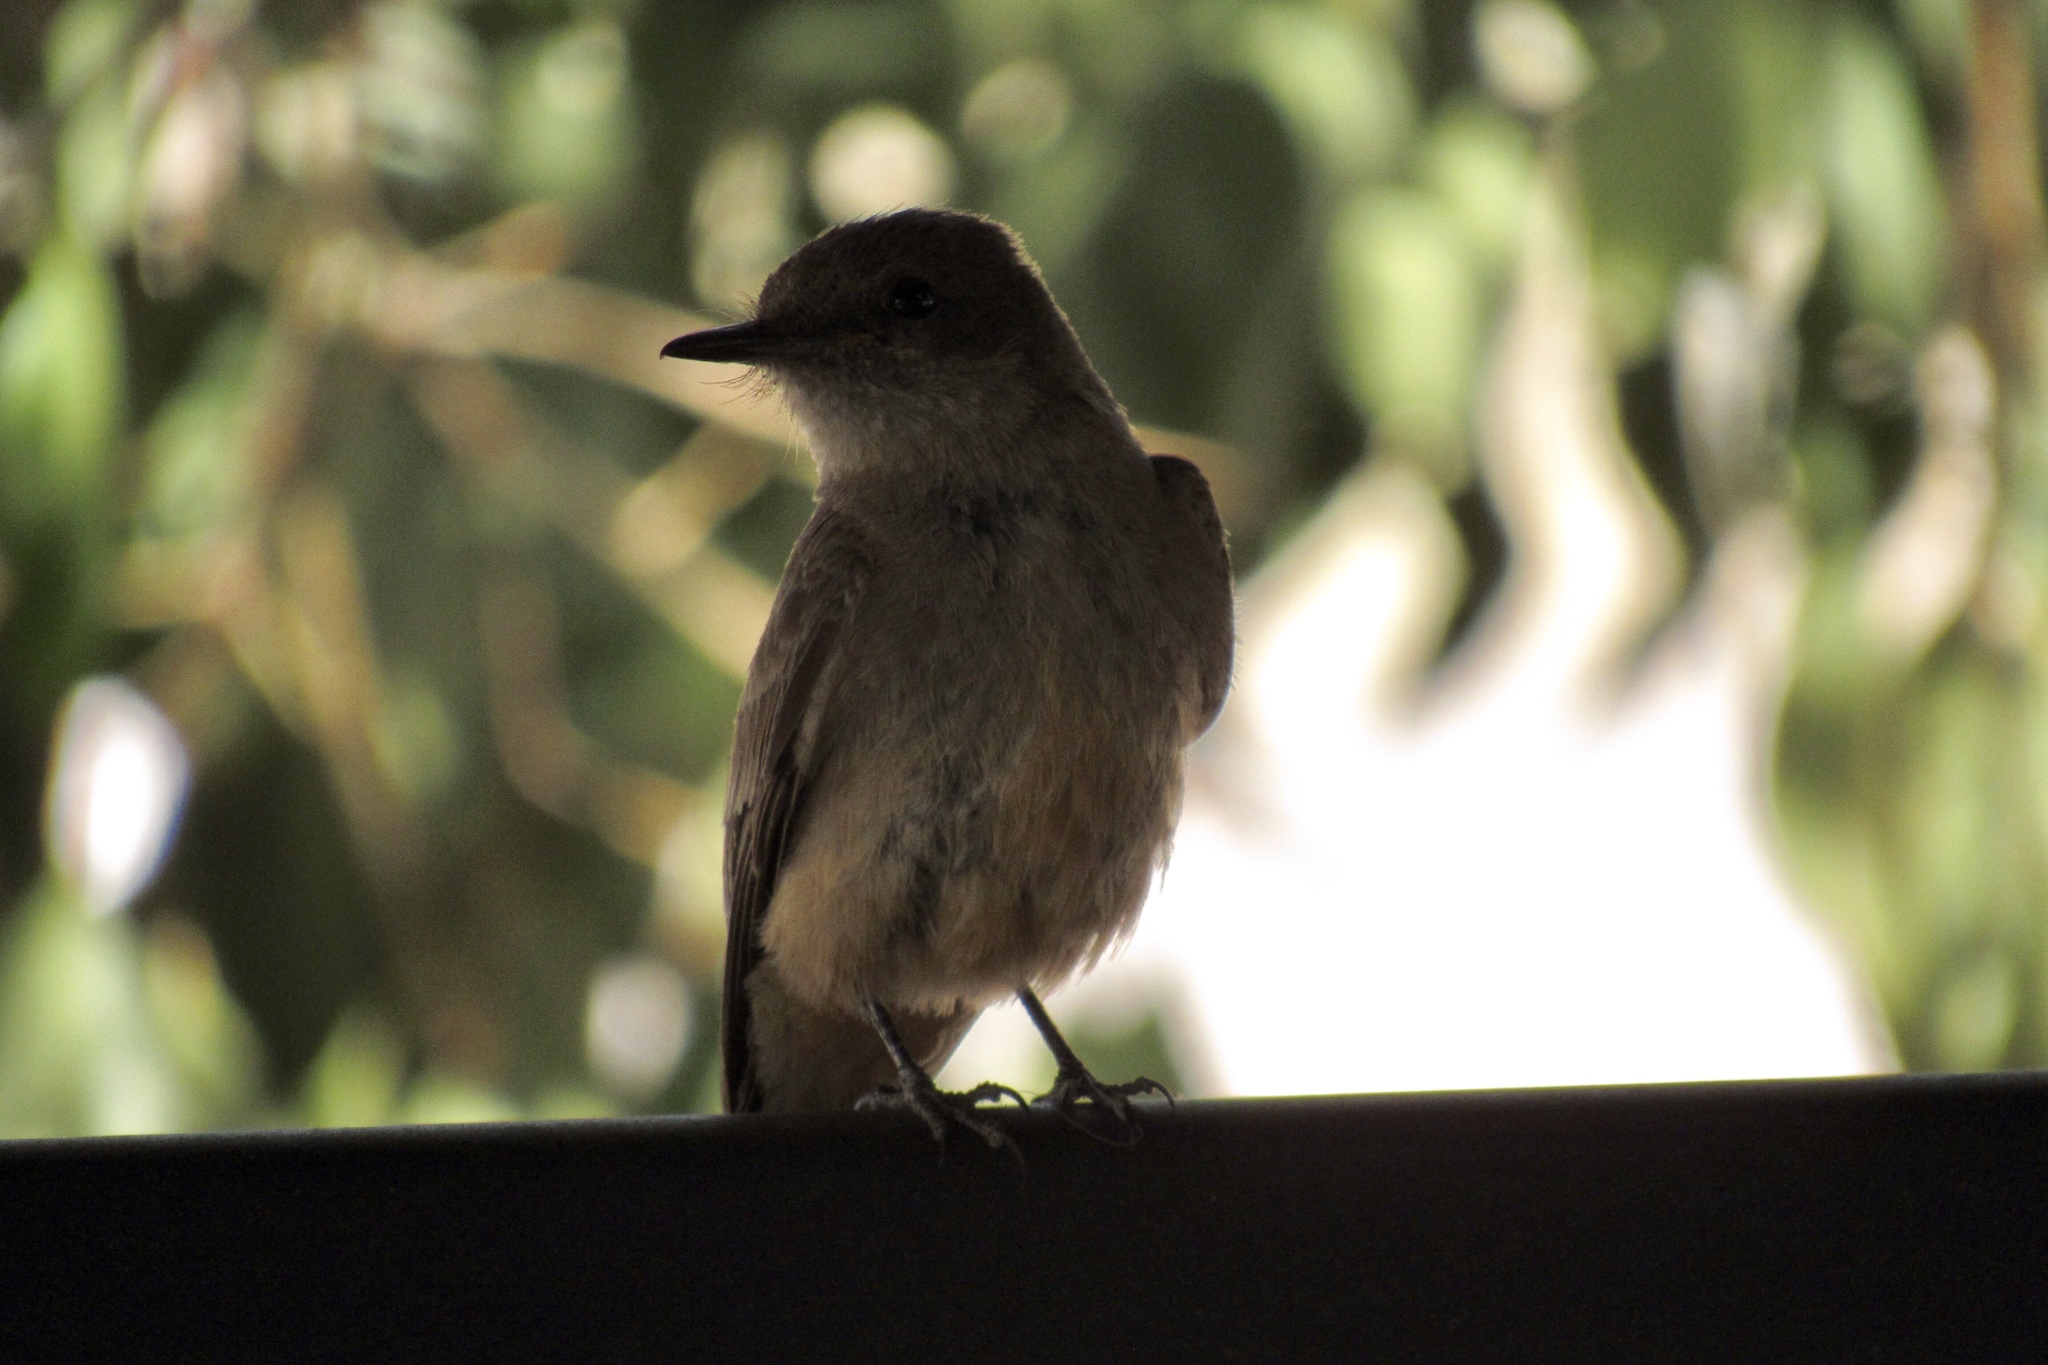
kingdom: Animalia
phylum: Chordata
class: Aves
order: Passeriformes
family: Tyrannidae
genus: Sayornis
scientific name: Sayornis saya
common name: Say's phoebe
